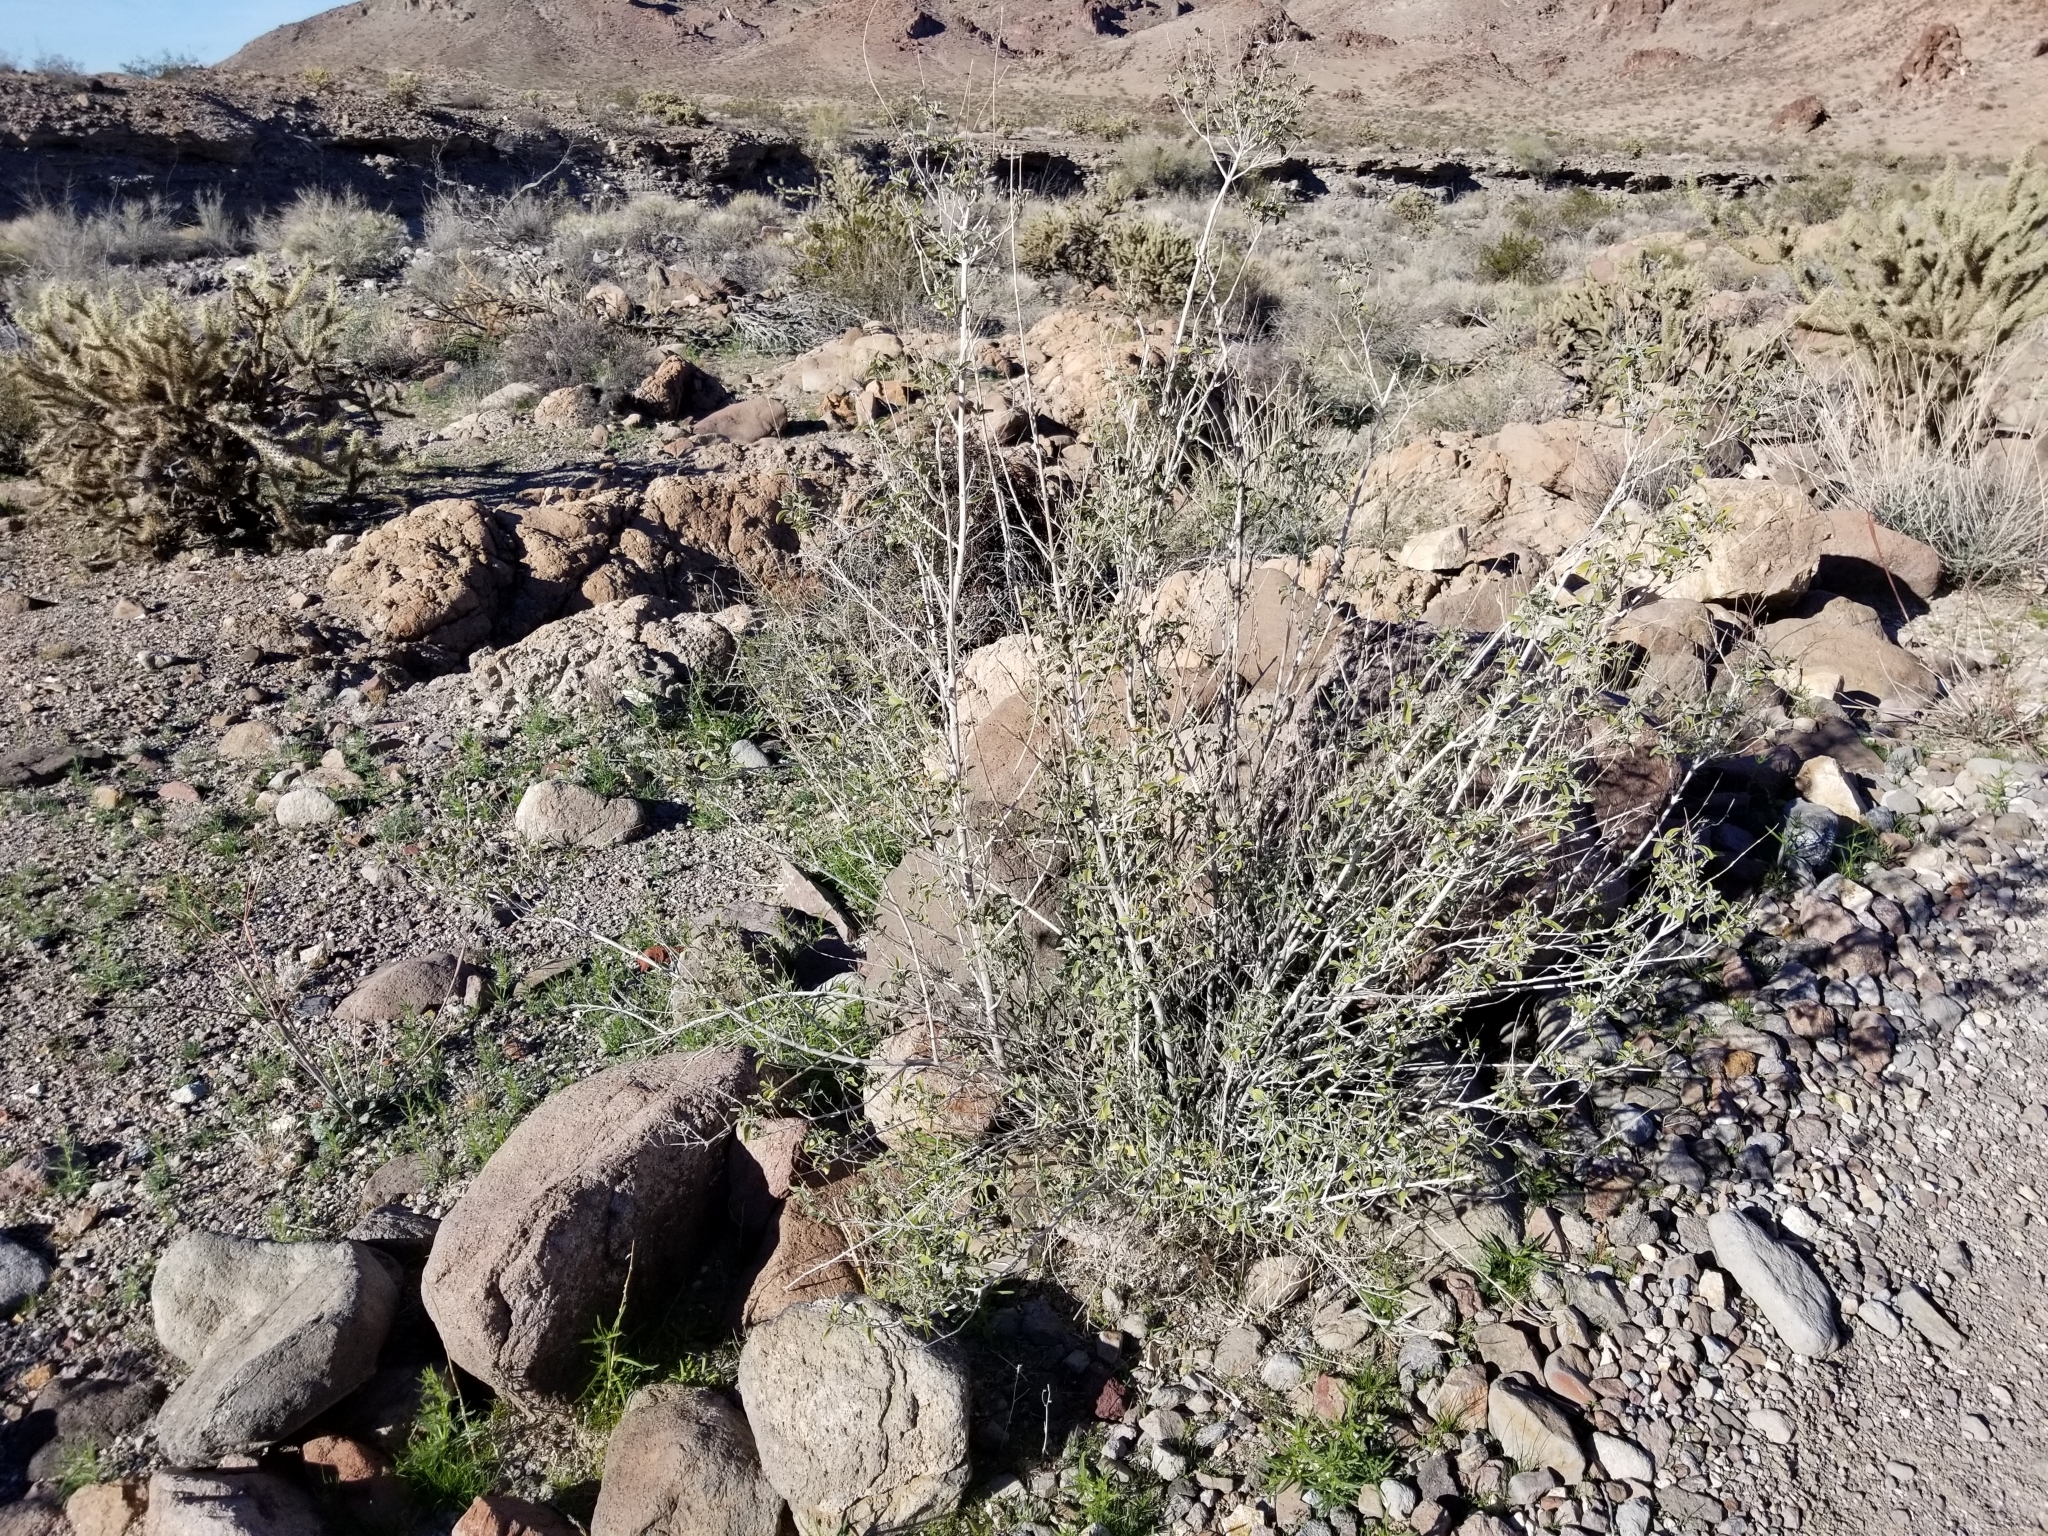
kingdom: Plantae
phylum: Tracheophyta
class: Magnoliopsida
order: Lamiales
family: Lamiaceae
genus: Condea
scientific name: Condea emoryi
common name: Chia
